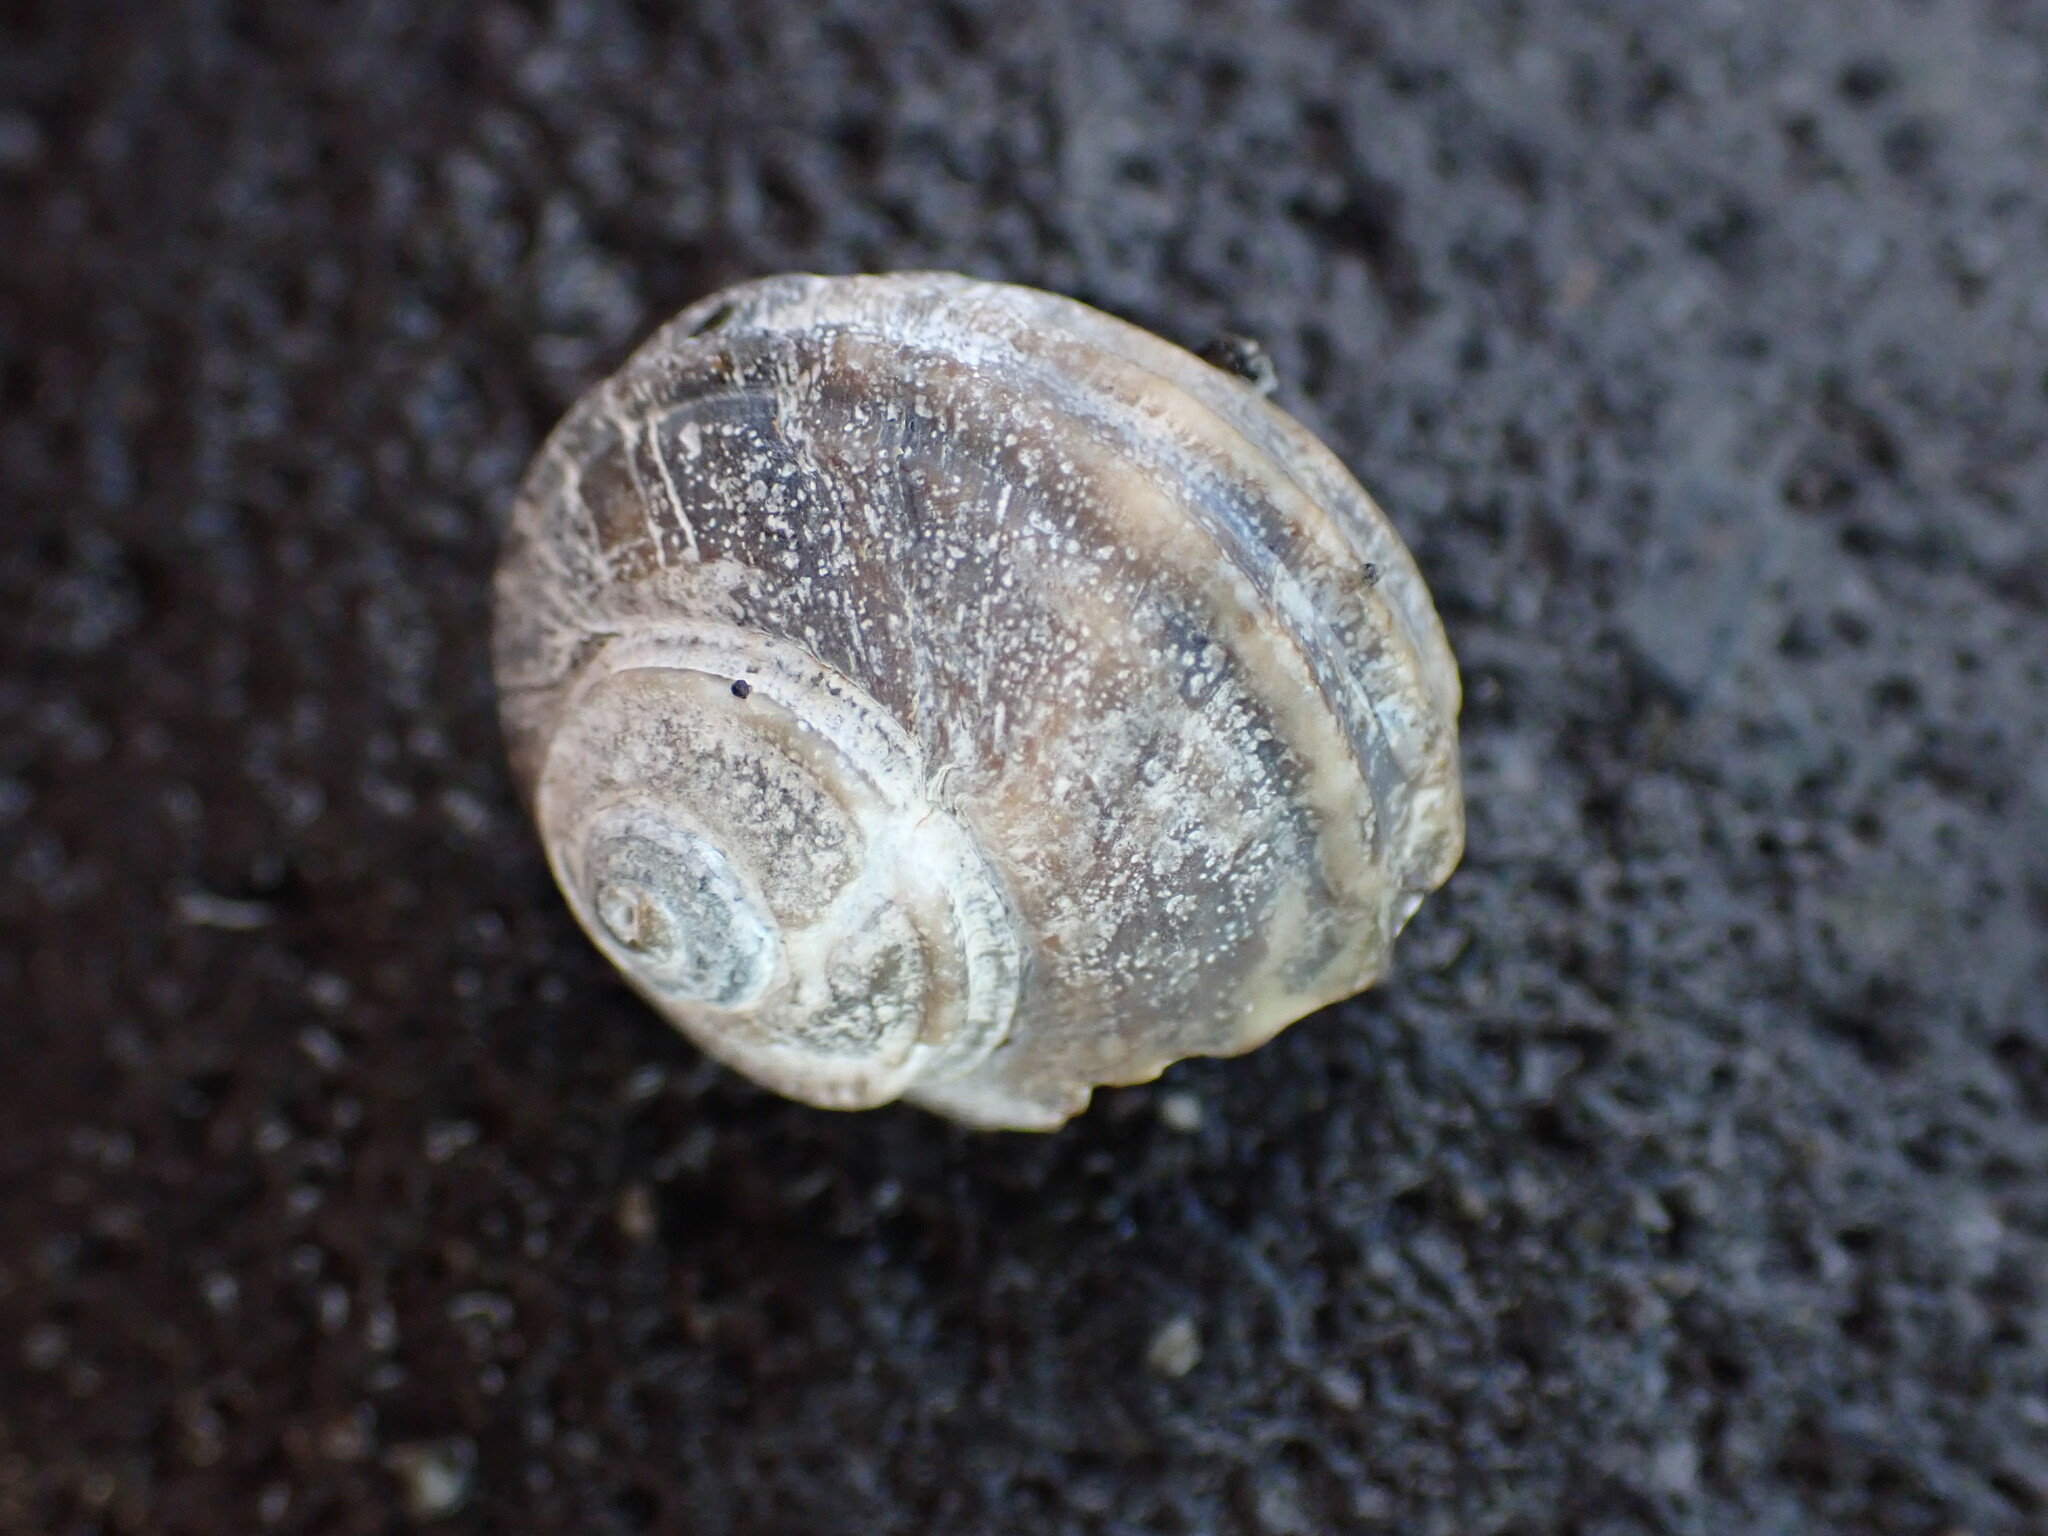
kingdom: Animalia
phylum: Mollusca
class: Gastropoda
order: Trochida
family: Turbinidae
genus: Lunella
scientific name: Lunella smaragda
